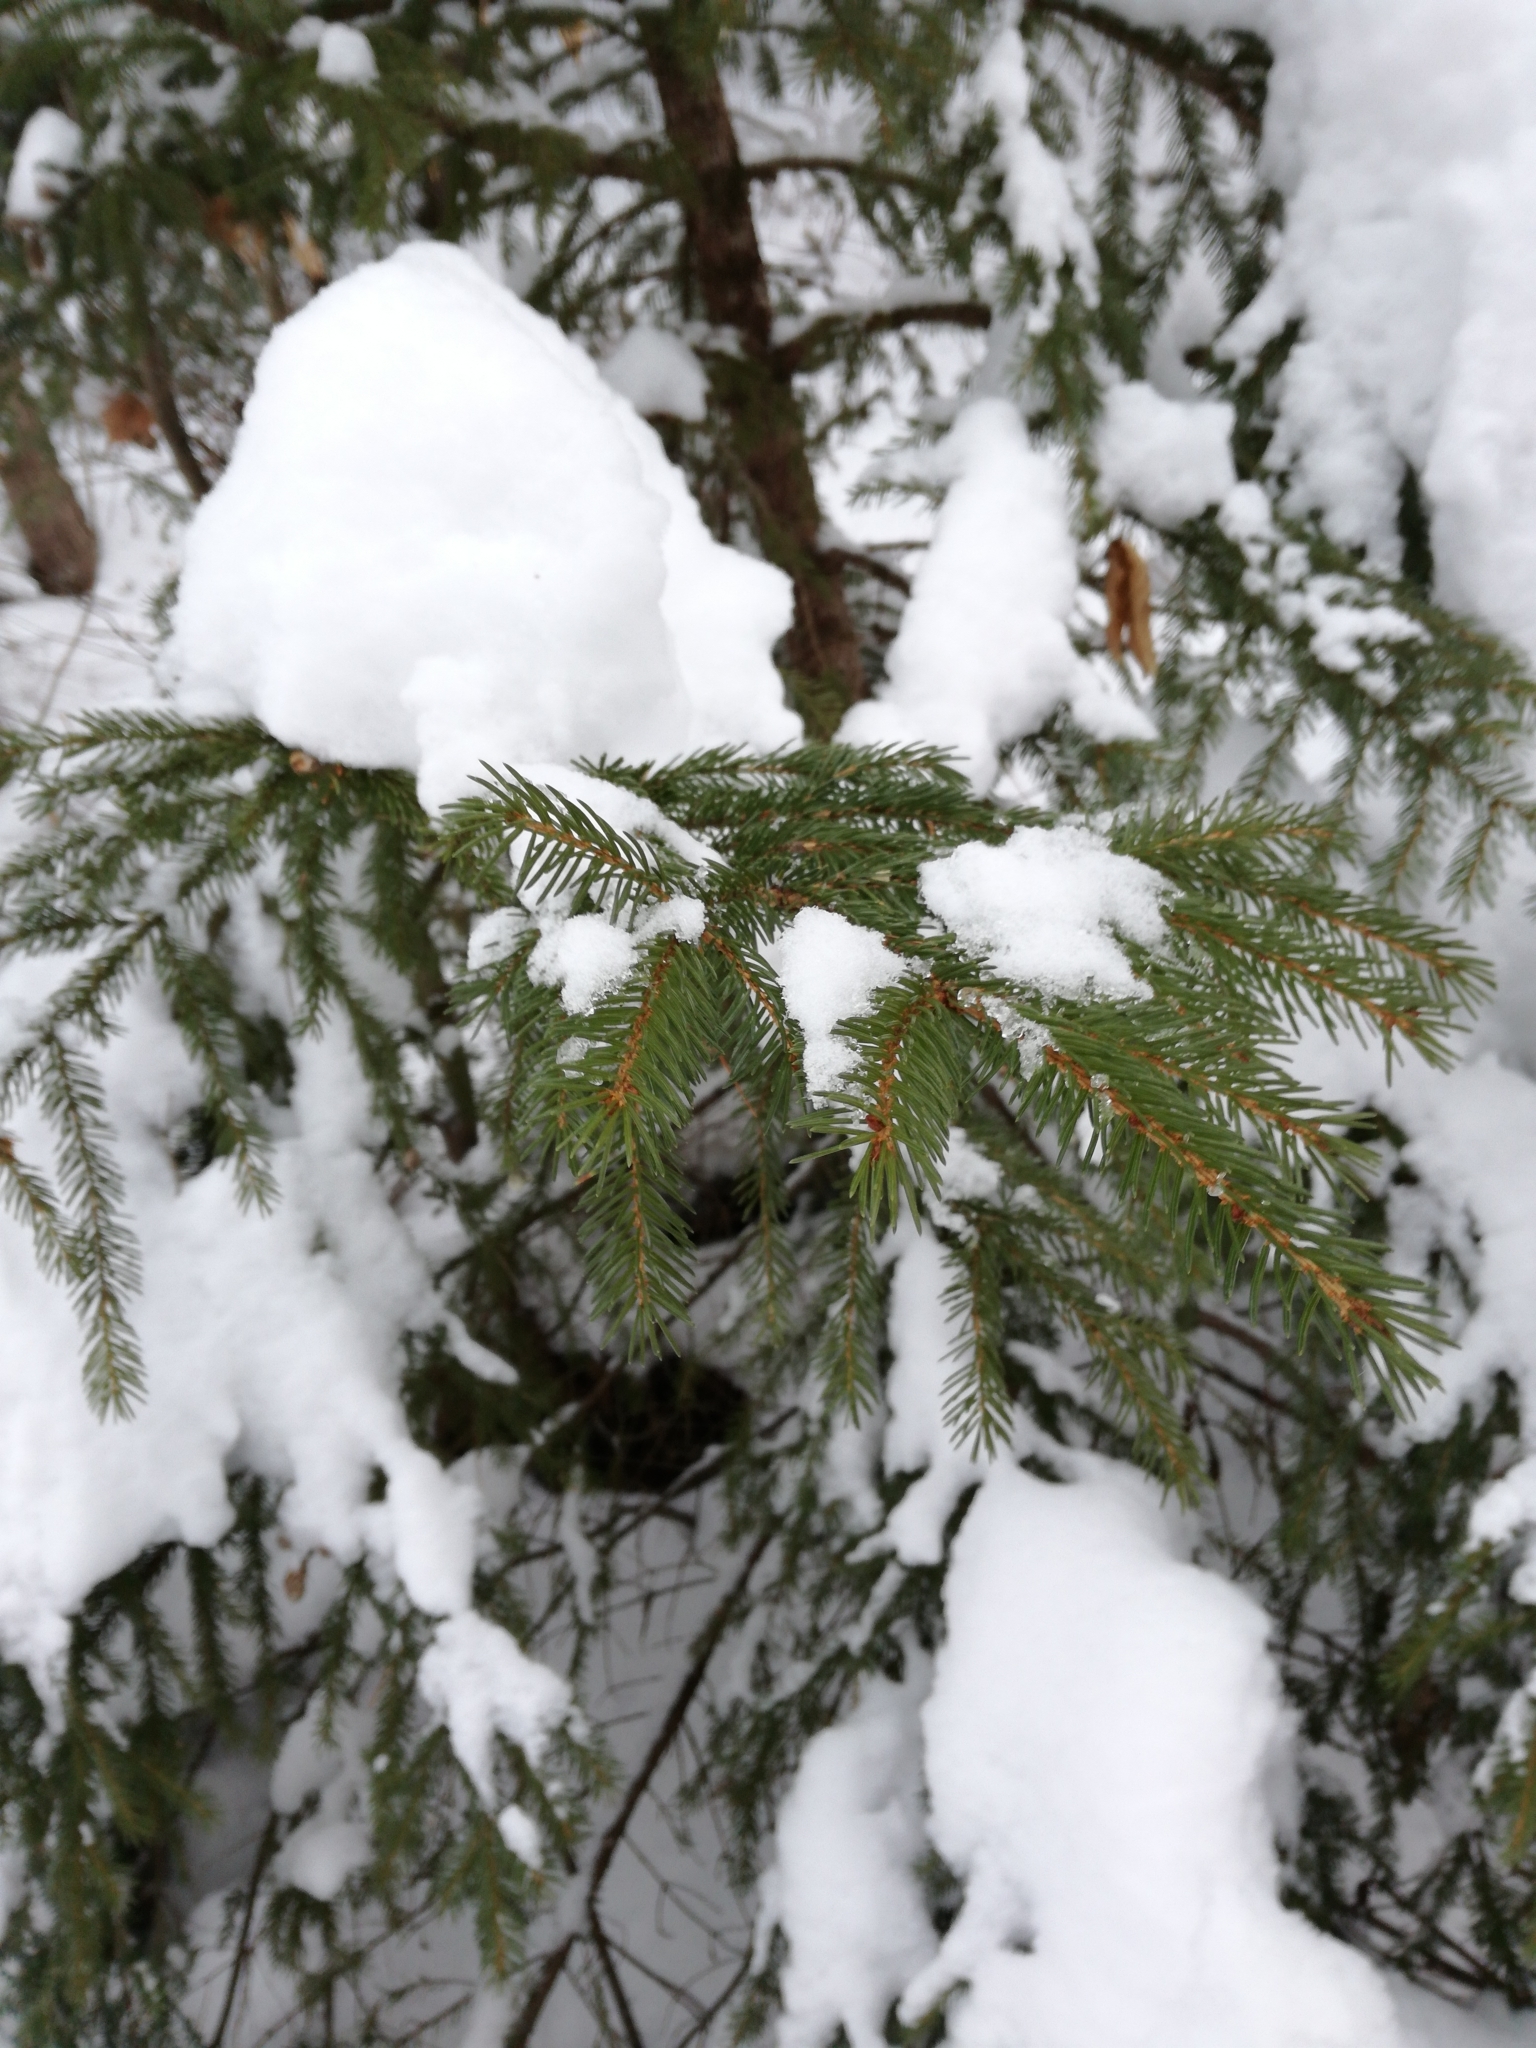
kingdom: Plantae
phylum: Tracheophyta
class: Pinopsida
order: Pinales
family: Pinaceae
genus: Picea
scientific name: Picea rubens
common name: Red spruce
